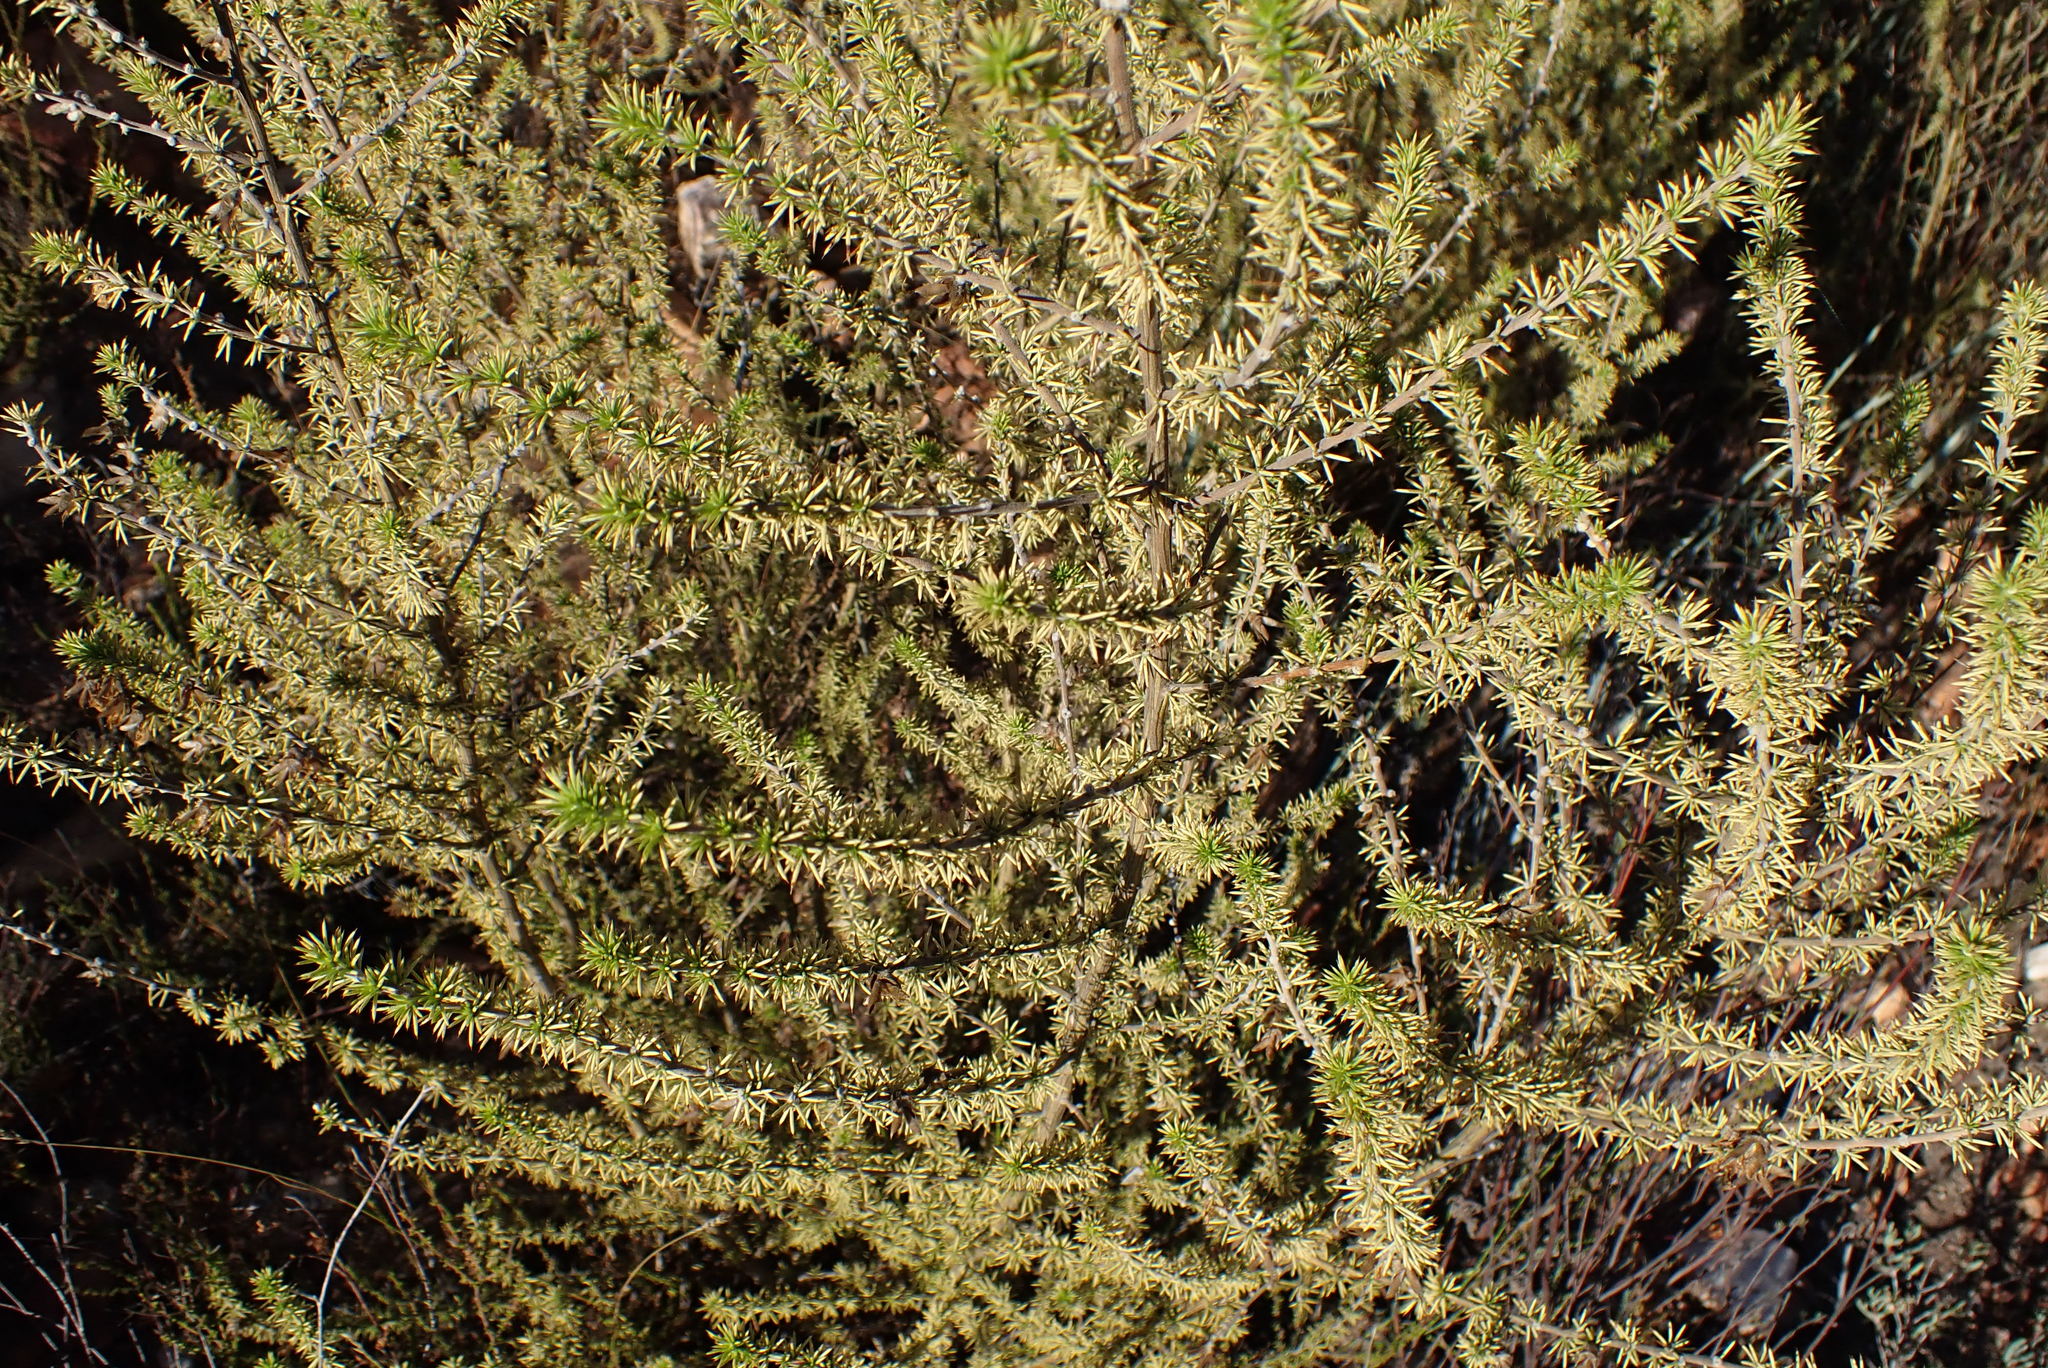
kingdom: Plantae
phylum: Tracheophyta
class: Magnoliopsida
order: Fabales
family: Fabaceae
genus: Aspalathus
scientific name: Aspalathus hirta
